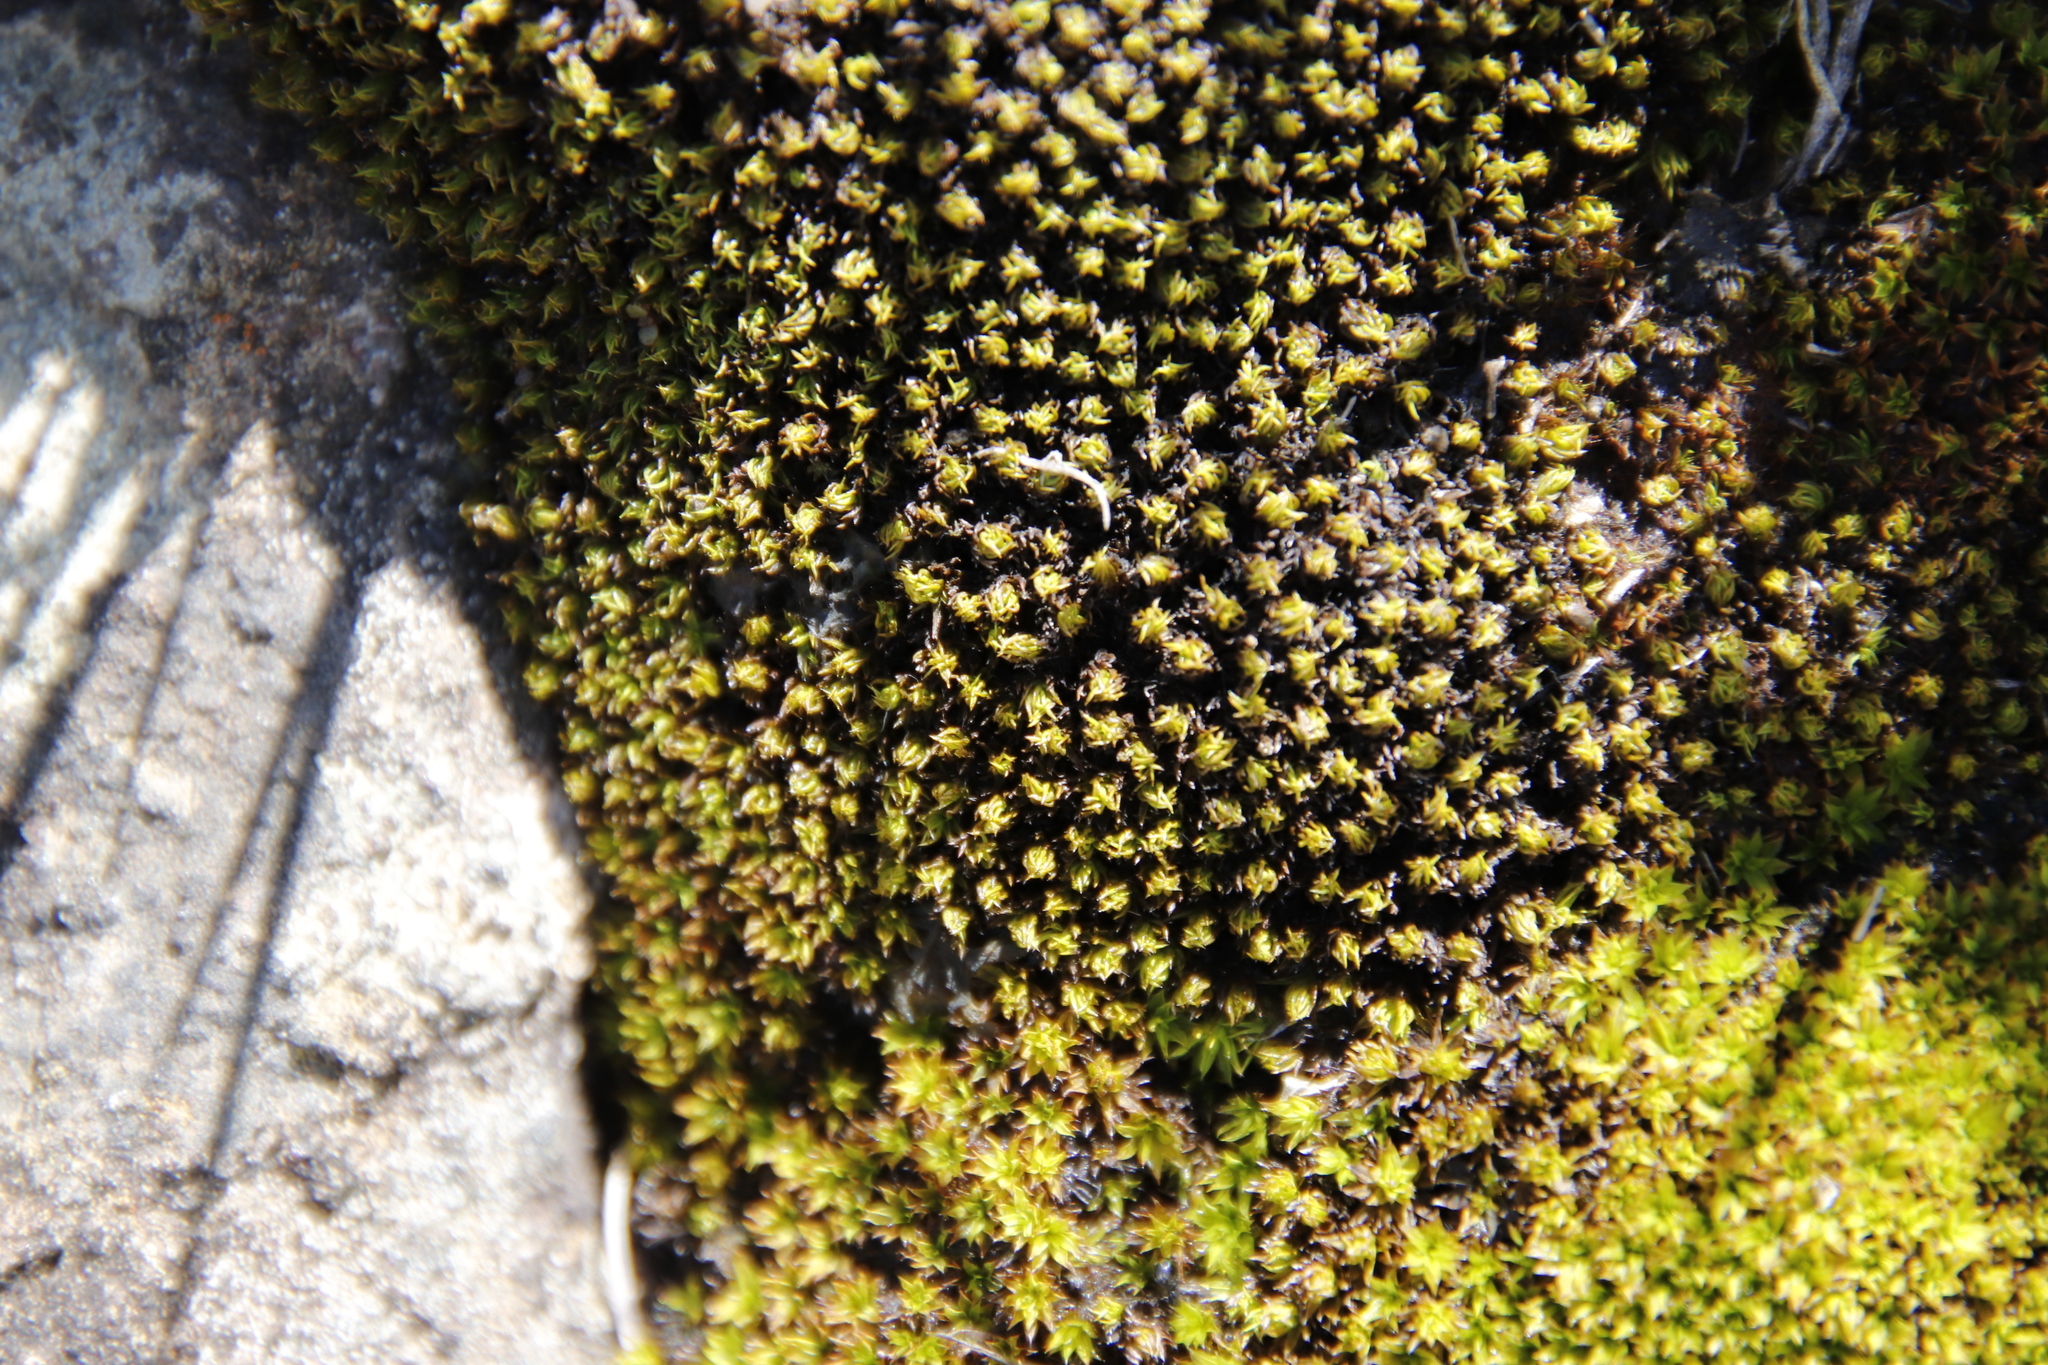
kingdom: Plantae
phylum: Bryophyta
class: Bryopsida
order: Pottiales
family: Pottiaceae
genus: Trichostomum
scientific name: Trichostomum brachydontium
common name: Variable crisp-moss
